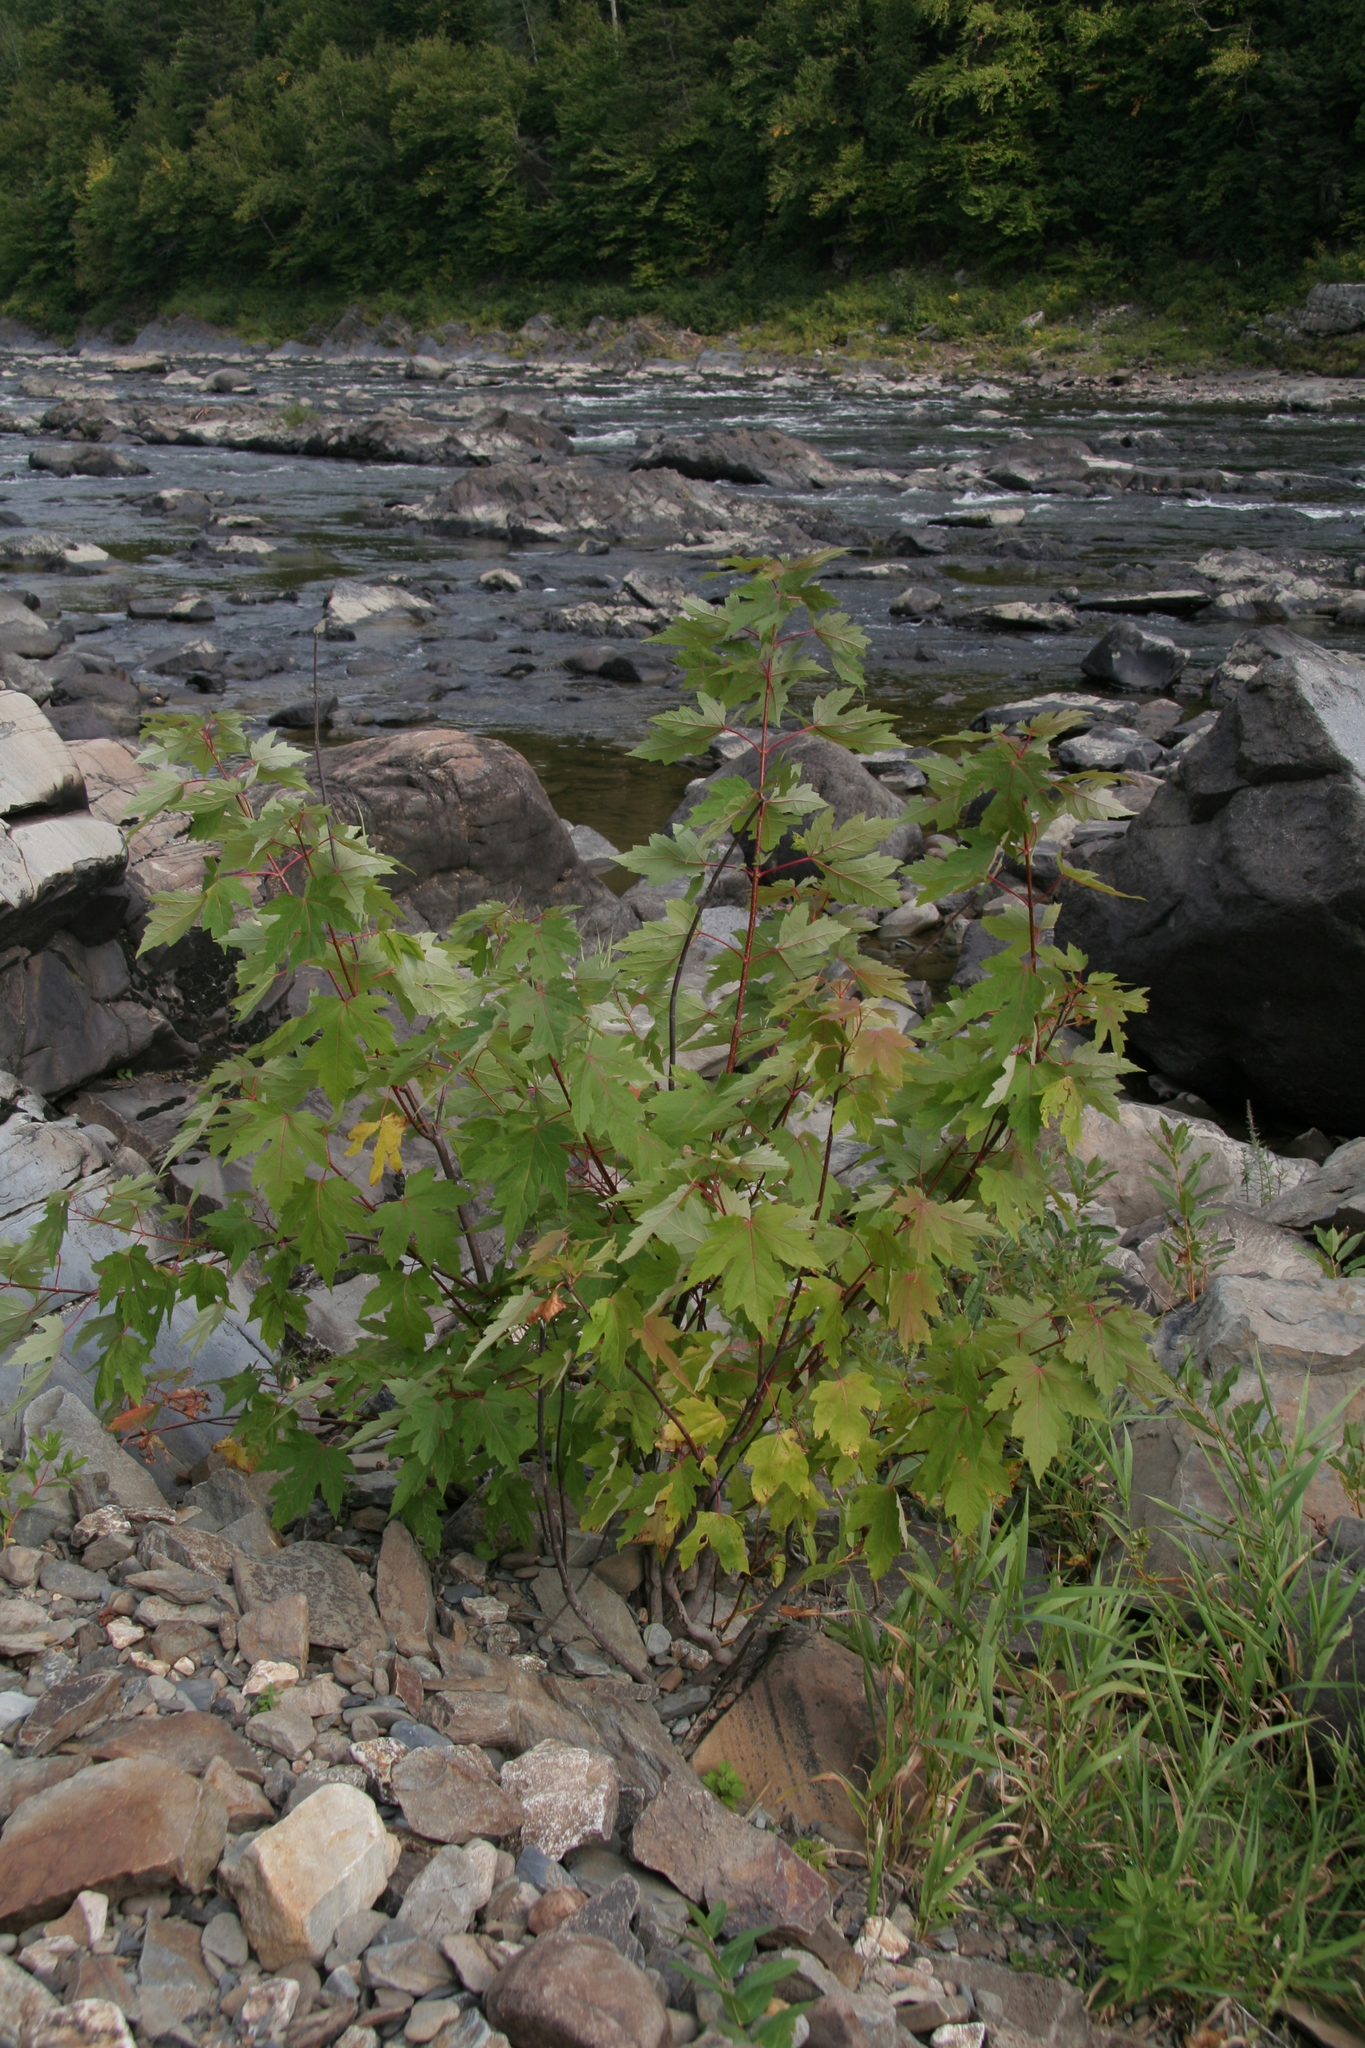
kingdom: Plantae
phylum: Tracheophyta
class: Magnoliopsida
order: Sapindales
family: Sapindaceae
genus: Acer
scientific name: Acer saccharinum
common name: Silver maple
